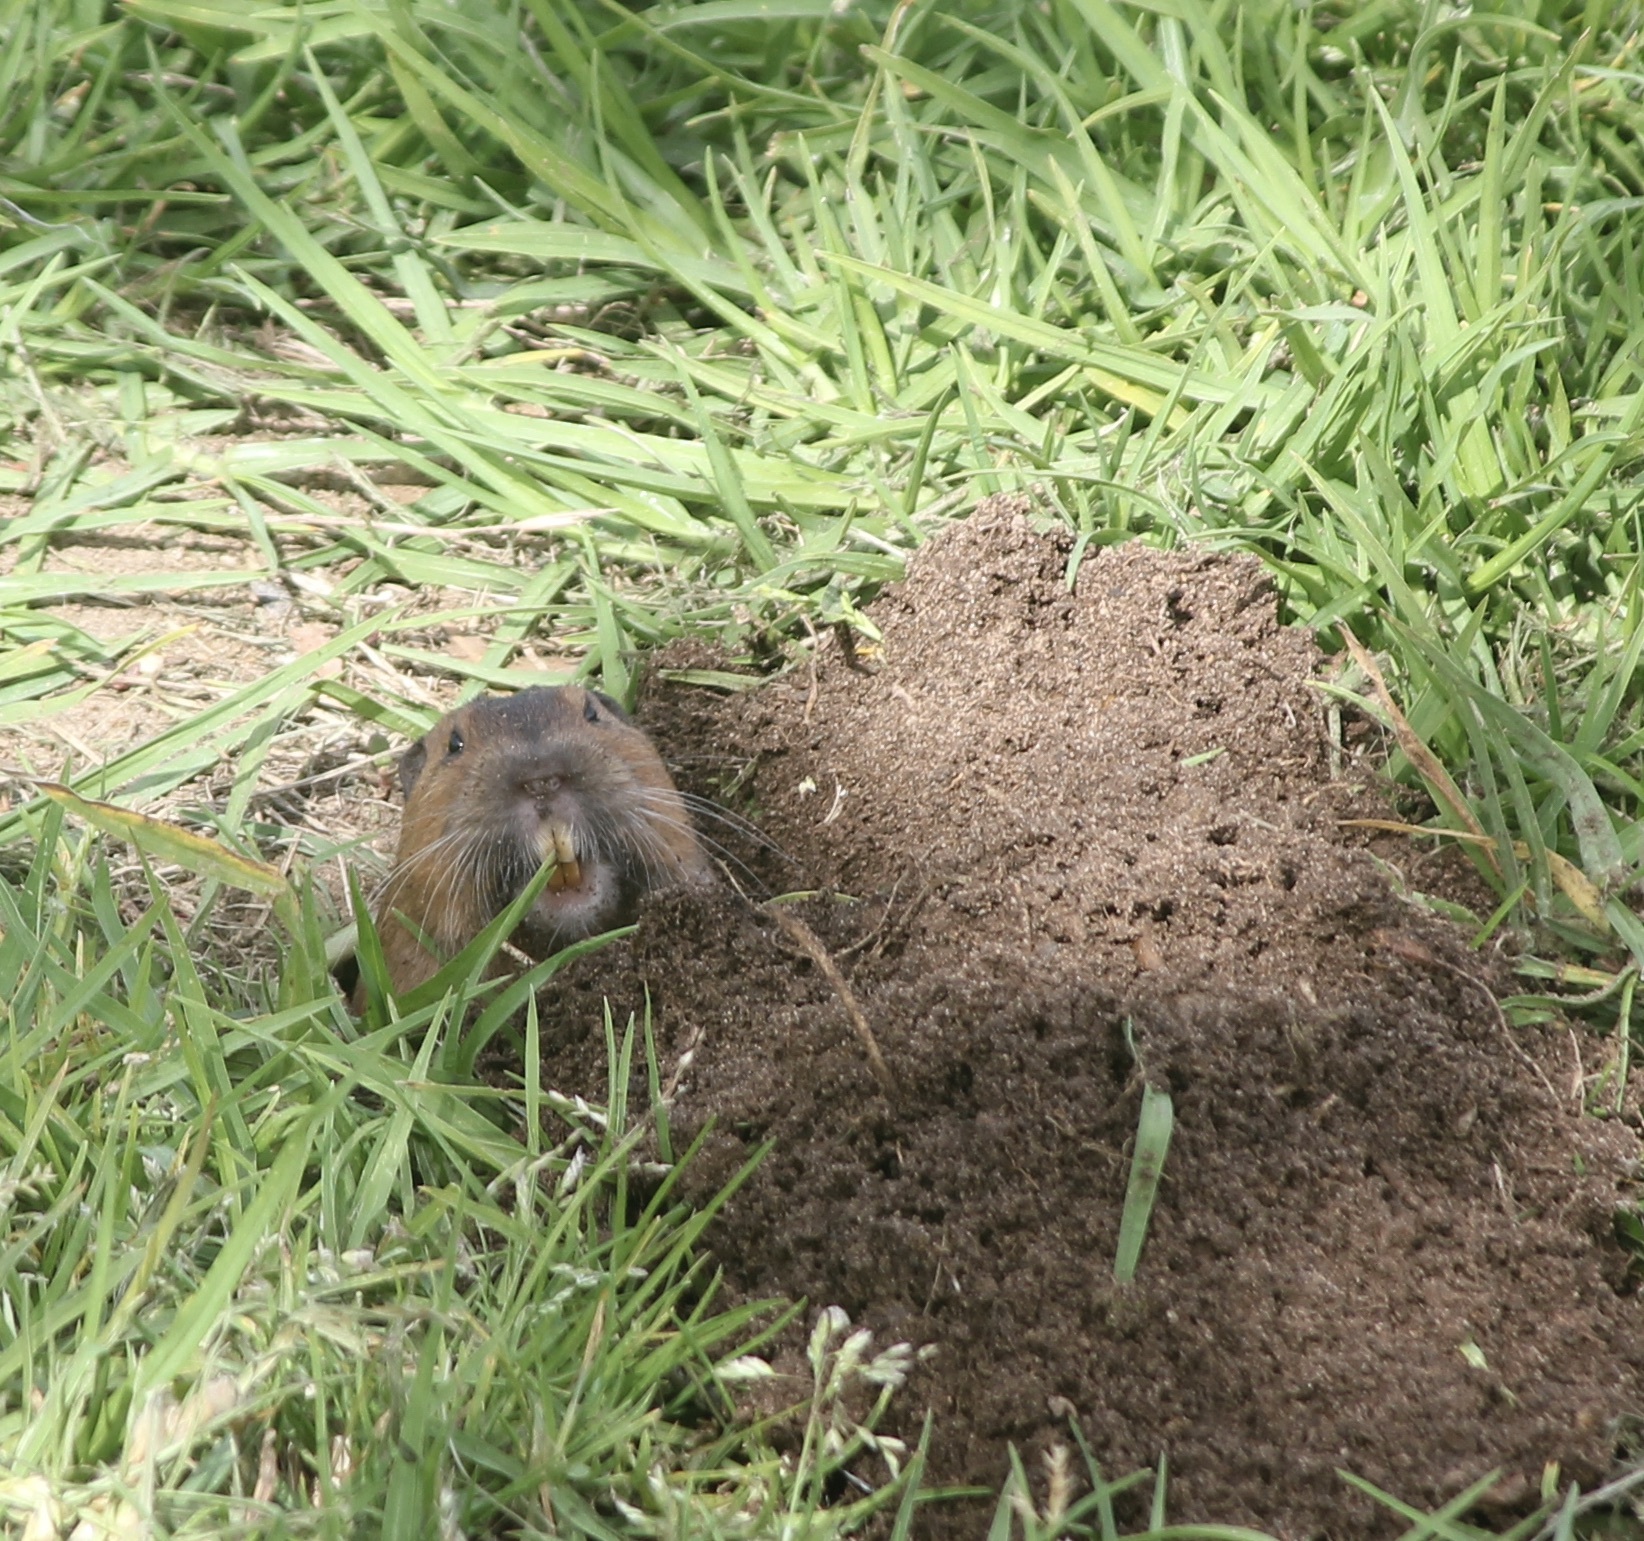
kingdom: Animalia
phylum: Chordata
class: Mammalia
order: Rodentia
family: Geomyidae
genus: Thomomys
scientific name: Thomomys bottae
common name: Botta's pocket gopher
